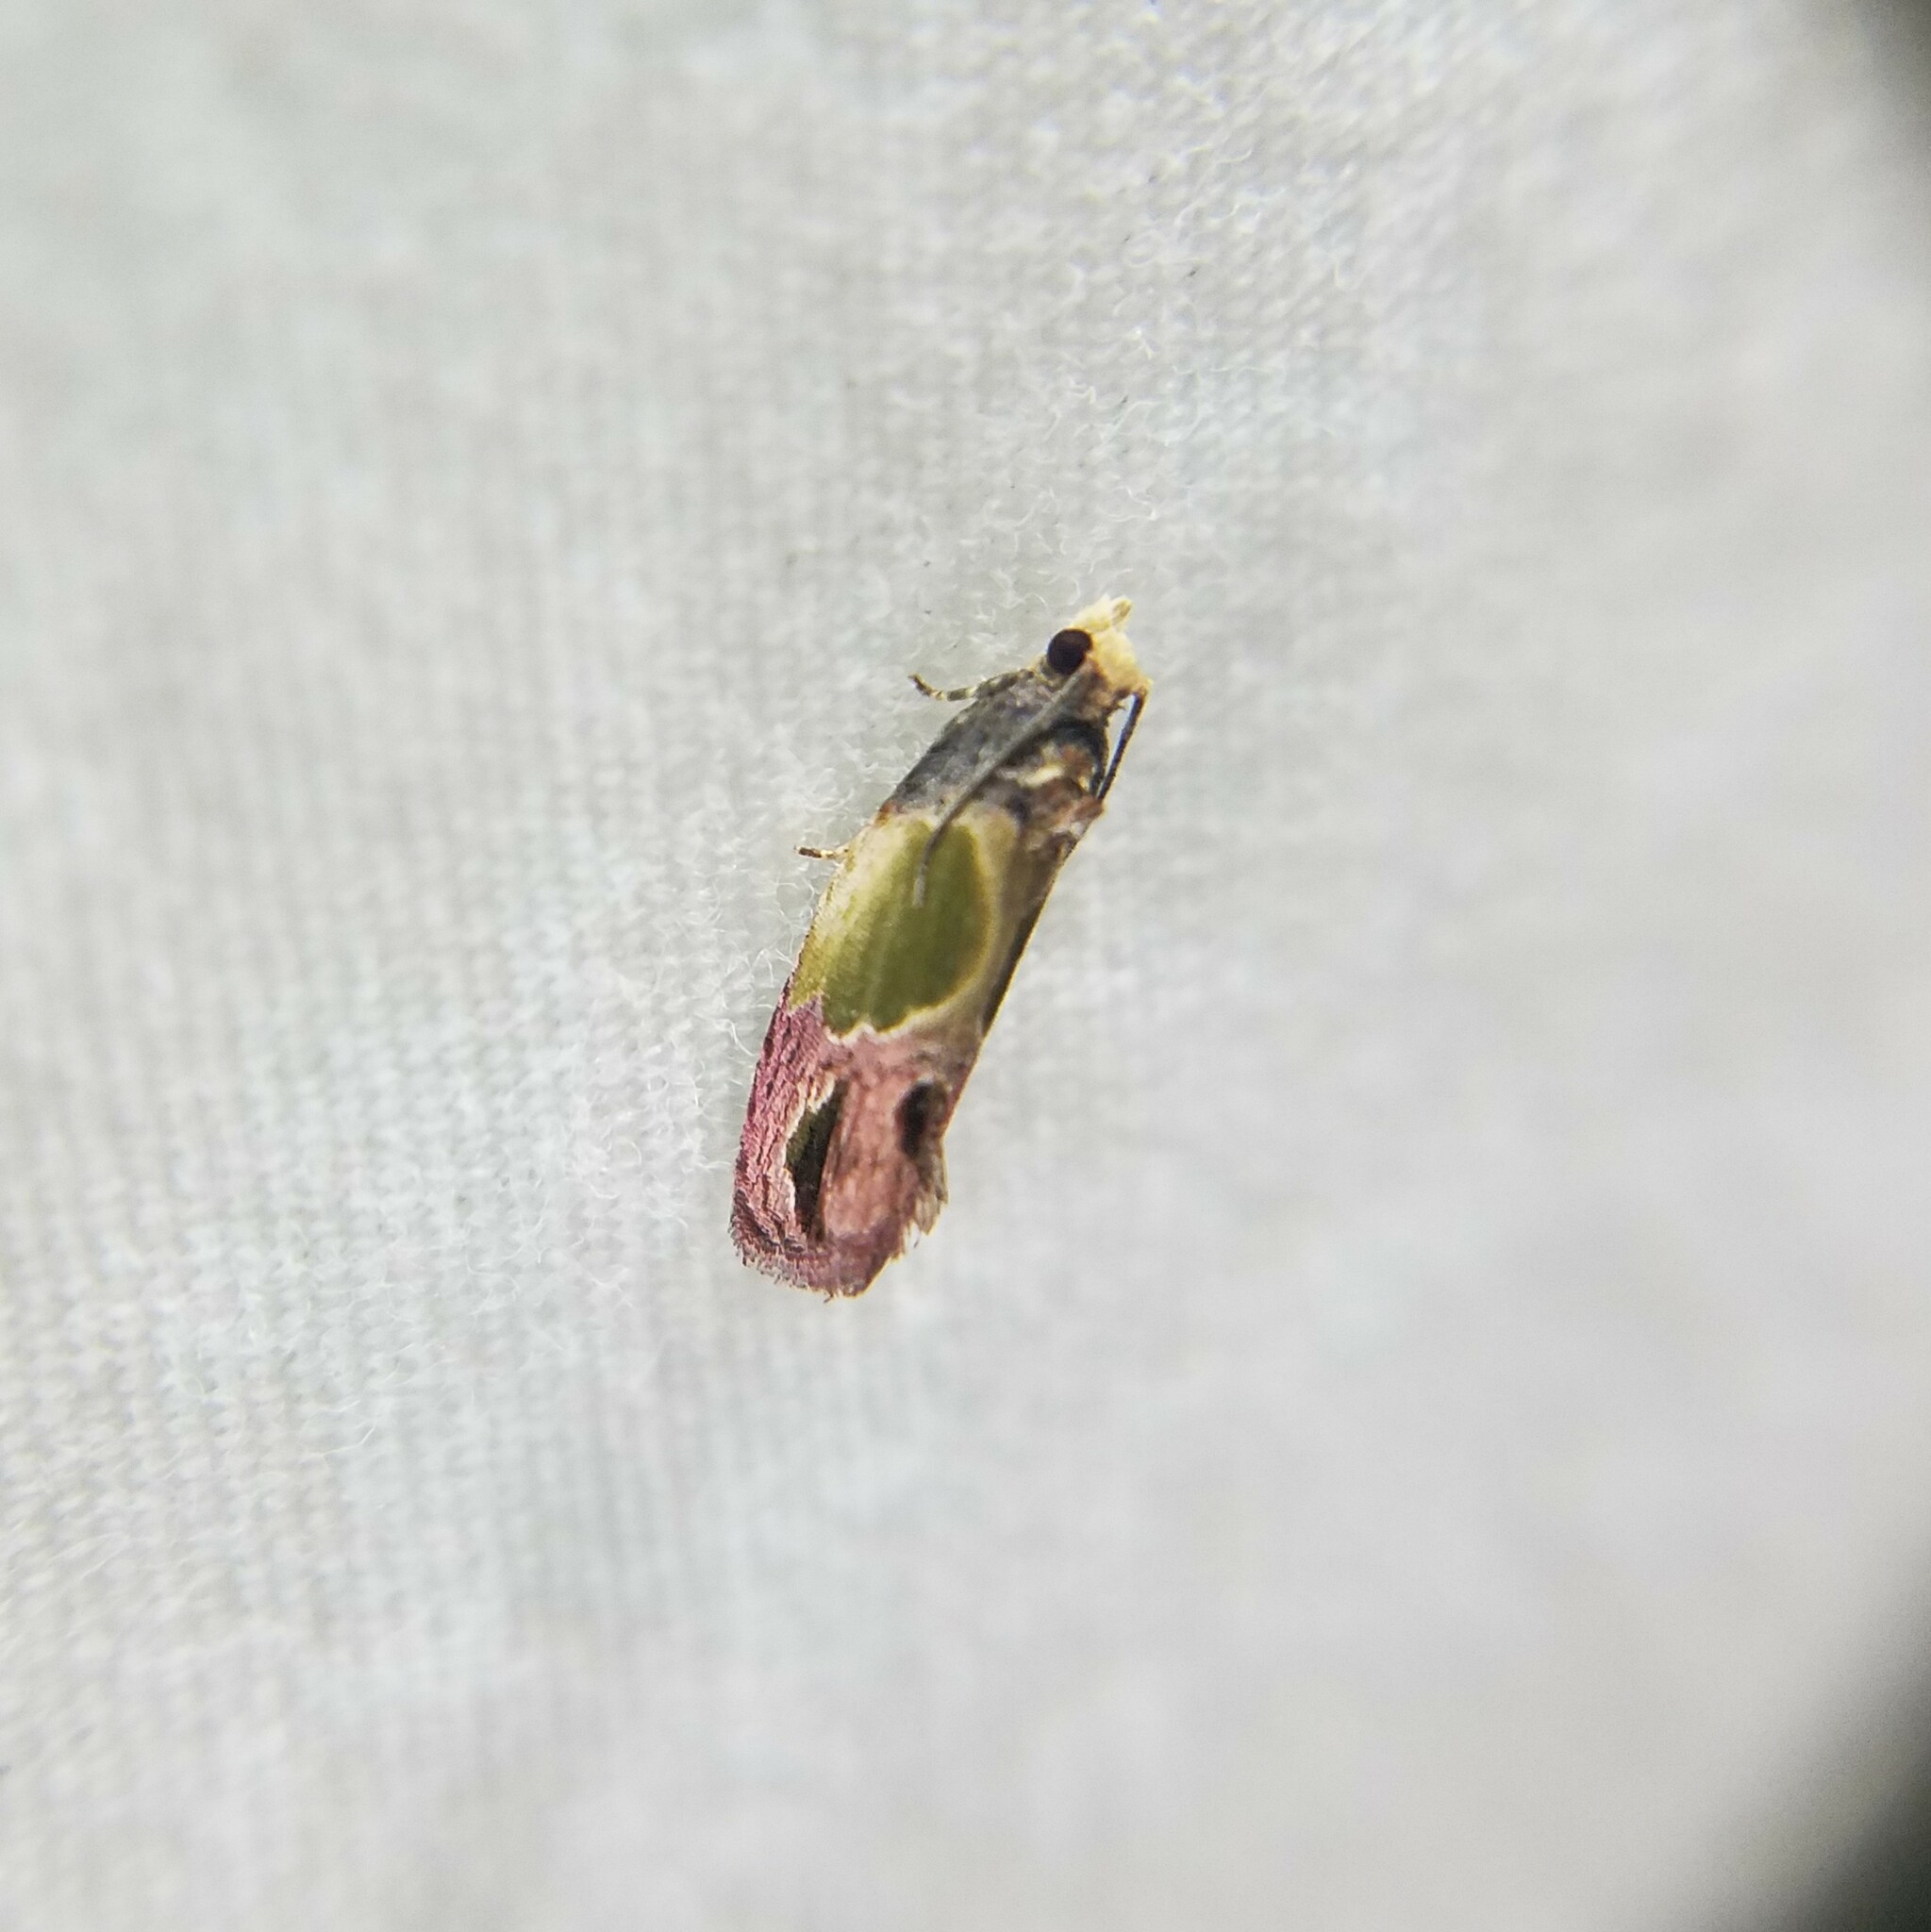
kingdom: Animalia
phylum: Arthropoda
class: Insecta
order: Lepidoptera
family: Tortricidae
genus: Eumarozia
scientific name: Eumarozia malachitana
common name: Sculptured moth
